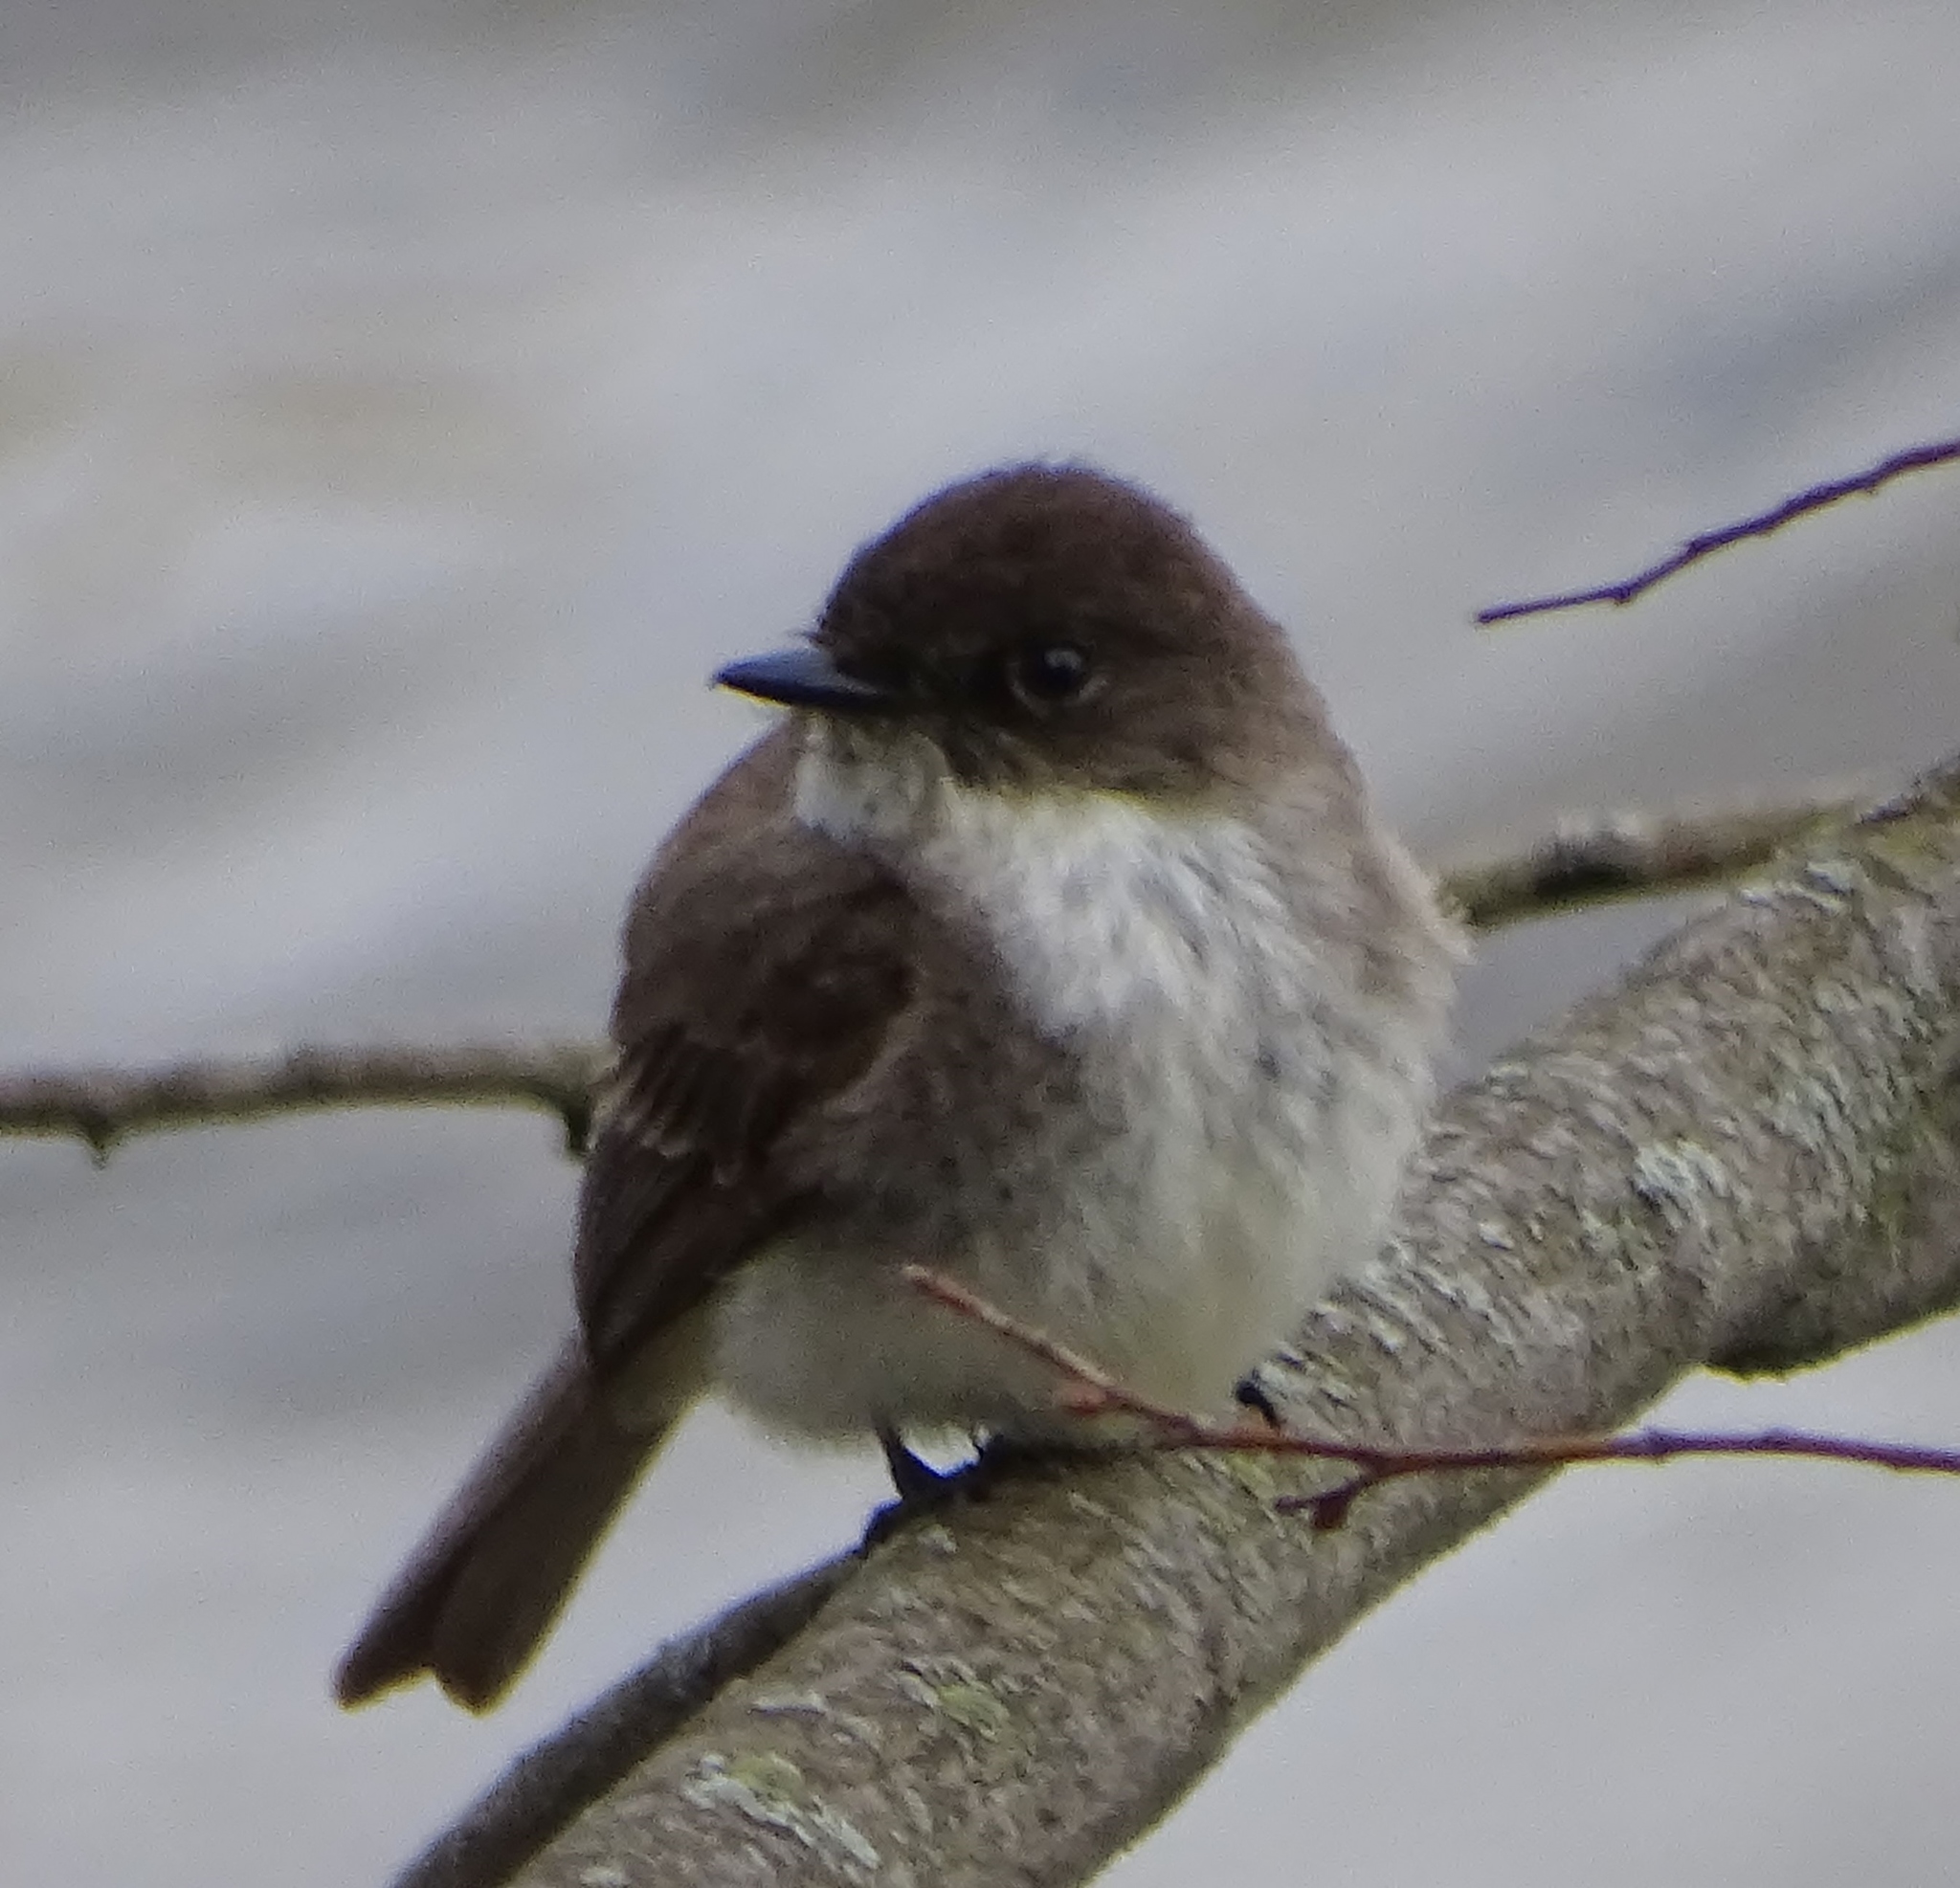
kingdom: Animalia
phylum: Chordata
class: Aves
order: Passeriformes
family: Tyrannidae
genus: Sayornis
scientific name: Sayornis phoebe
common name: Eastern phoebe
